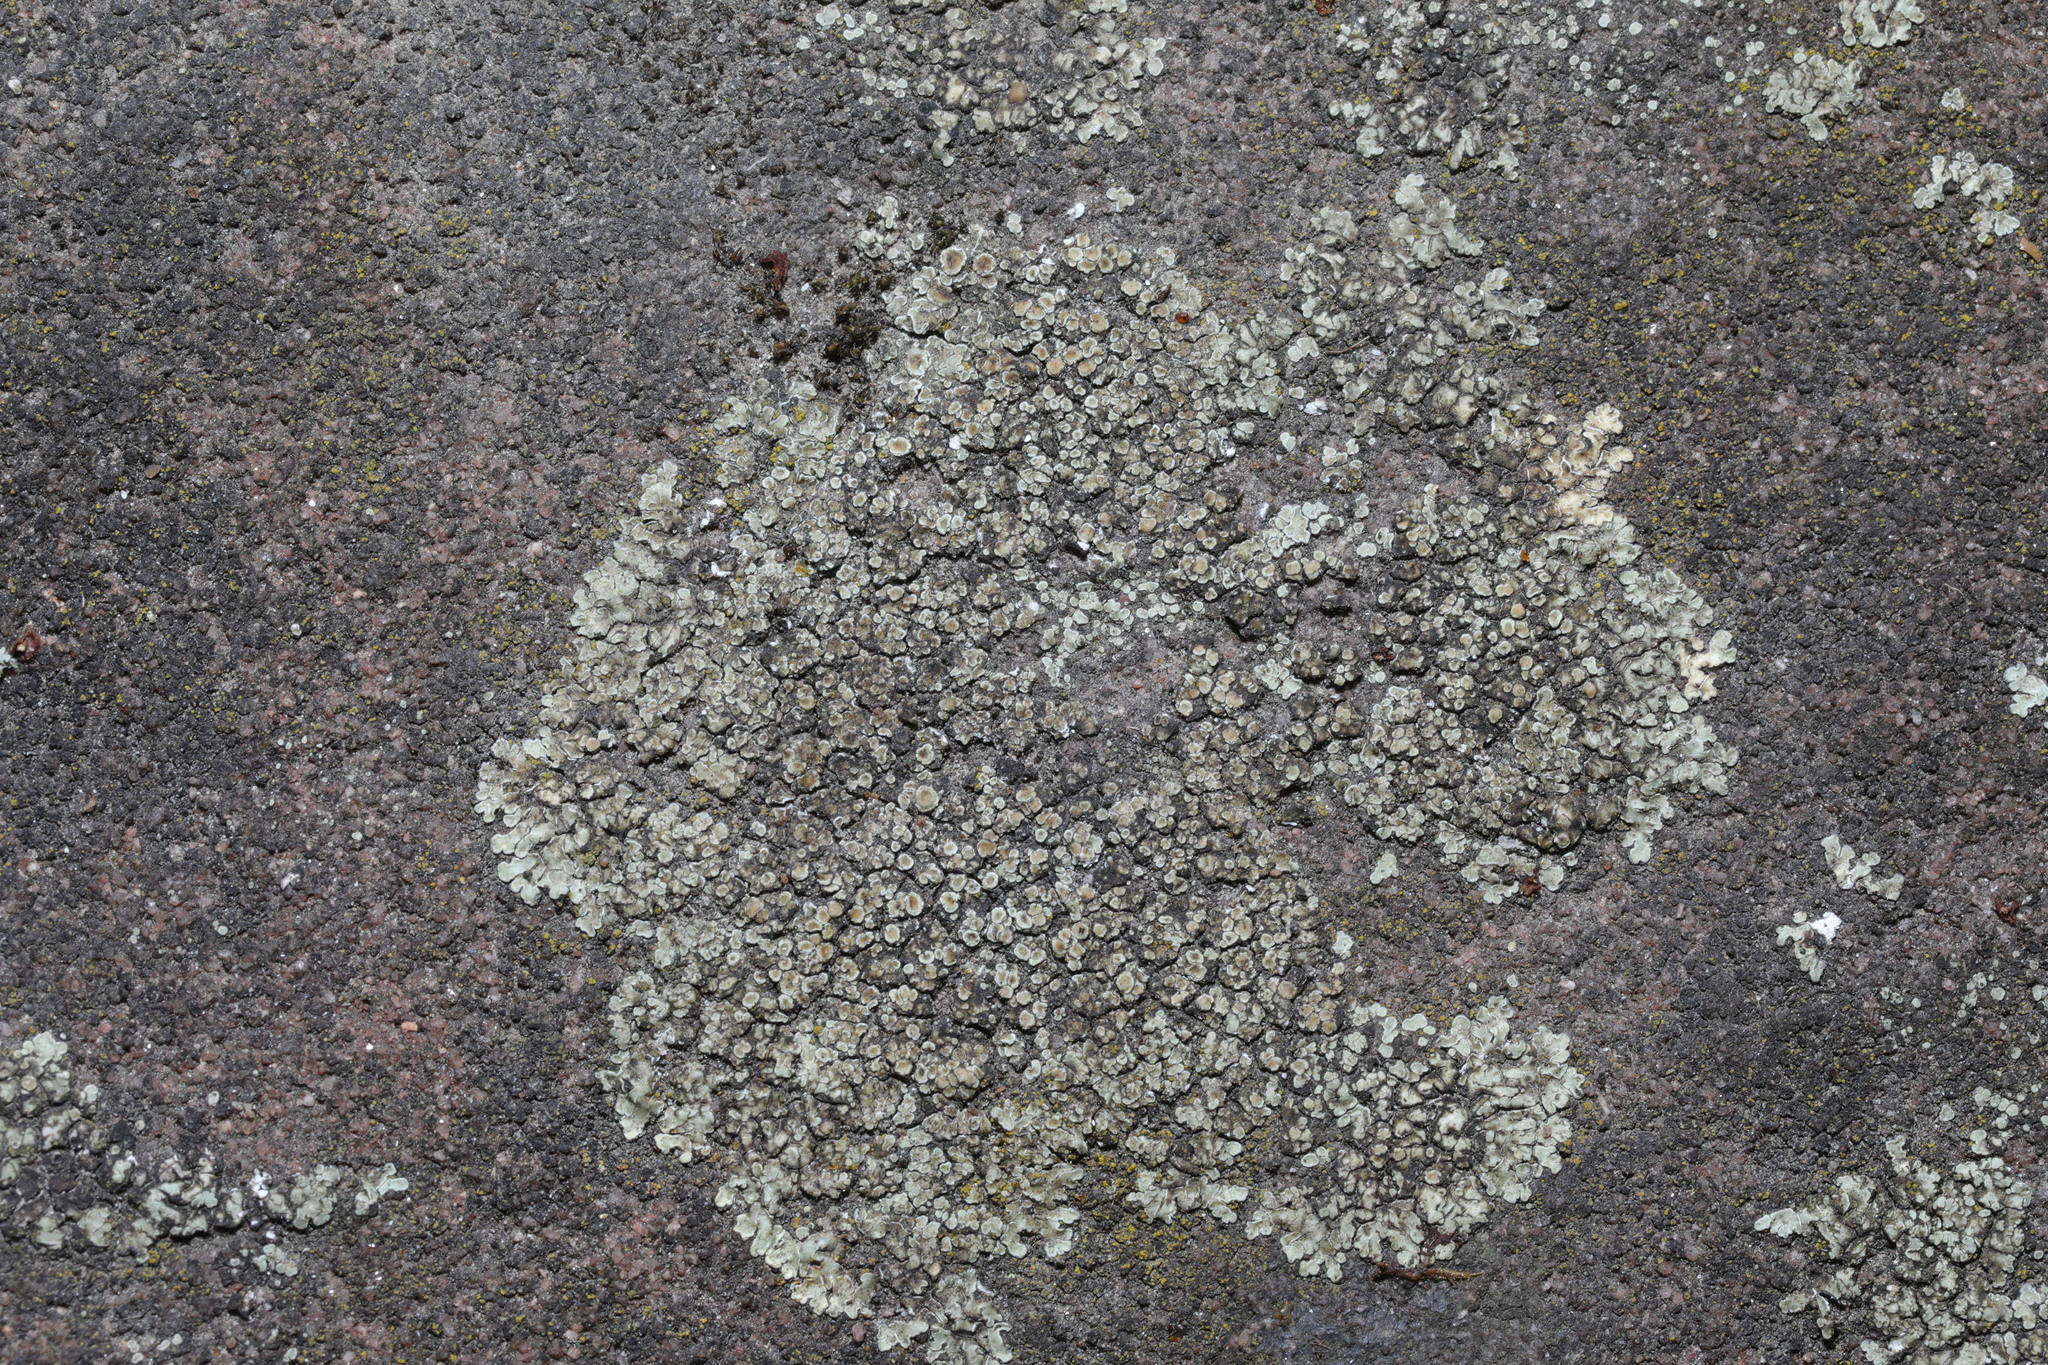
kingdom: Fungi
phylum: Ascomycota
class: Lecanoromycetes
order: Lecanorales
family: Lecanoraceae
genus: Protoparmeliopsis
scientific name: Protoparmeliopsis muralis
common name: Stonewall rim lichen
